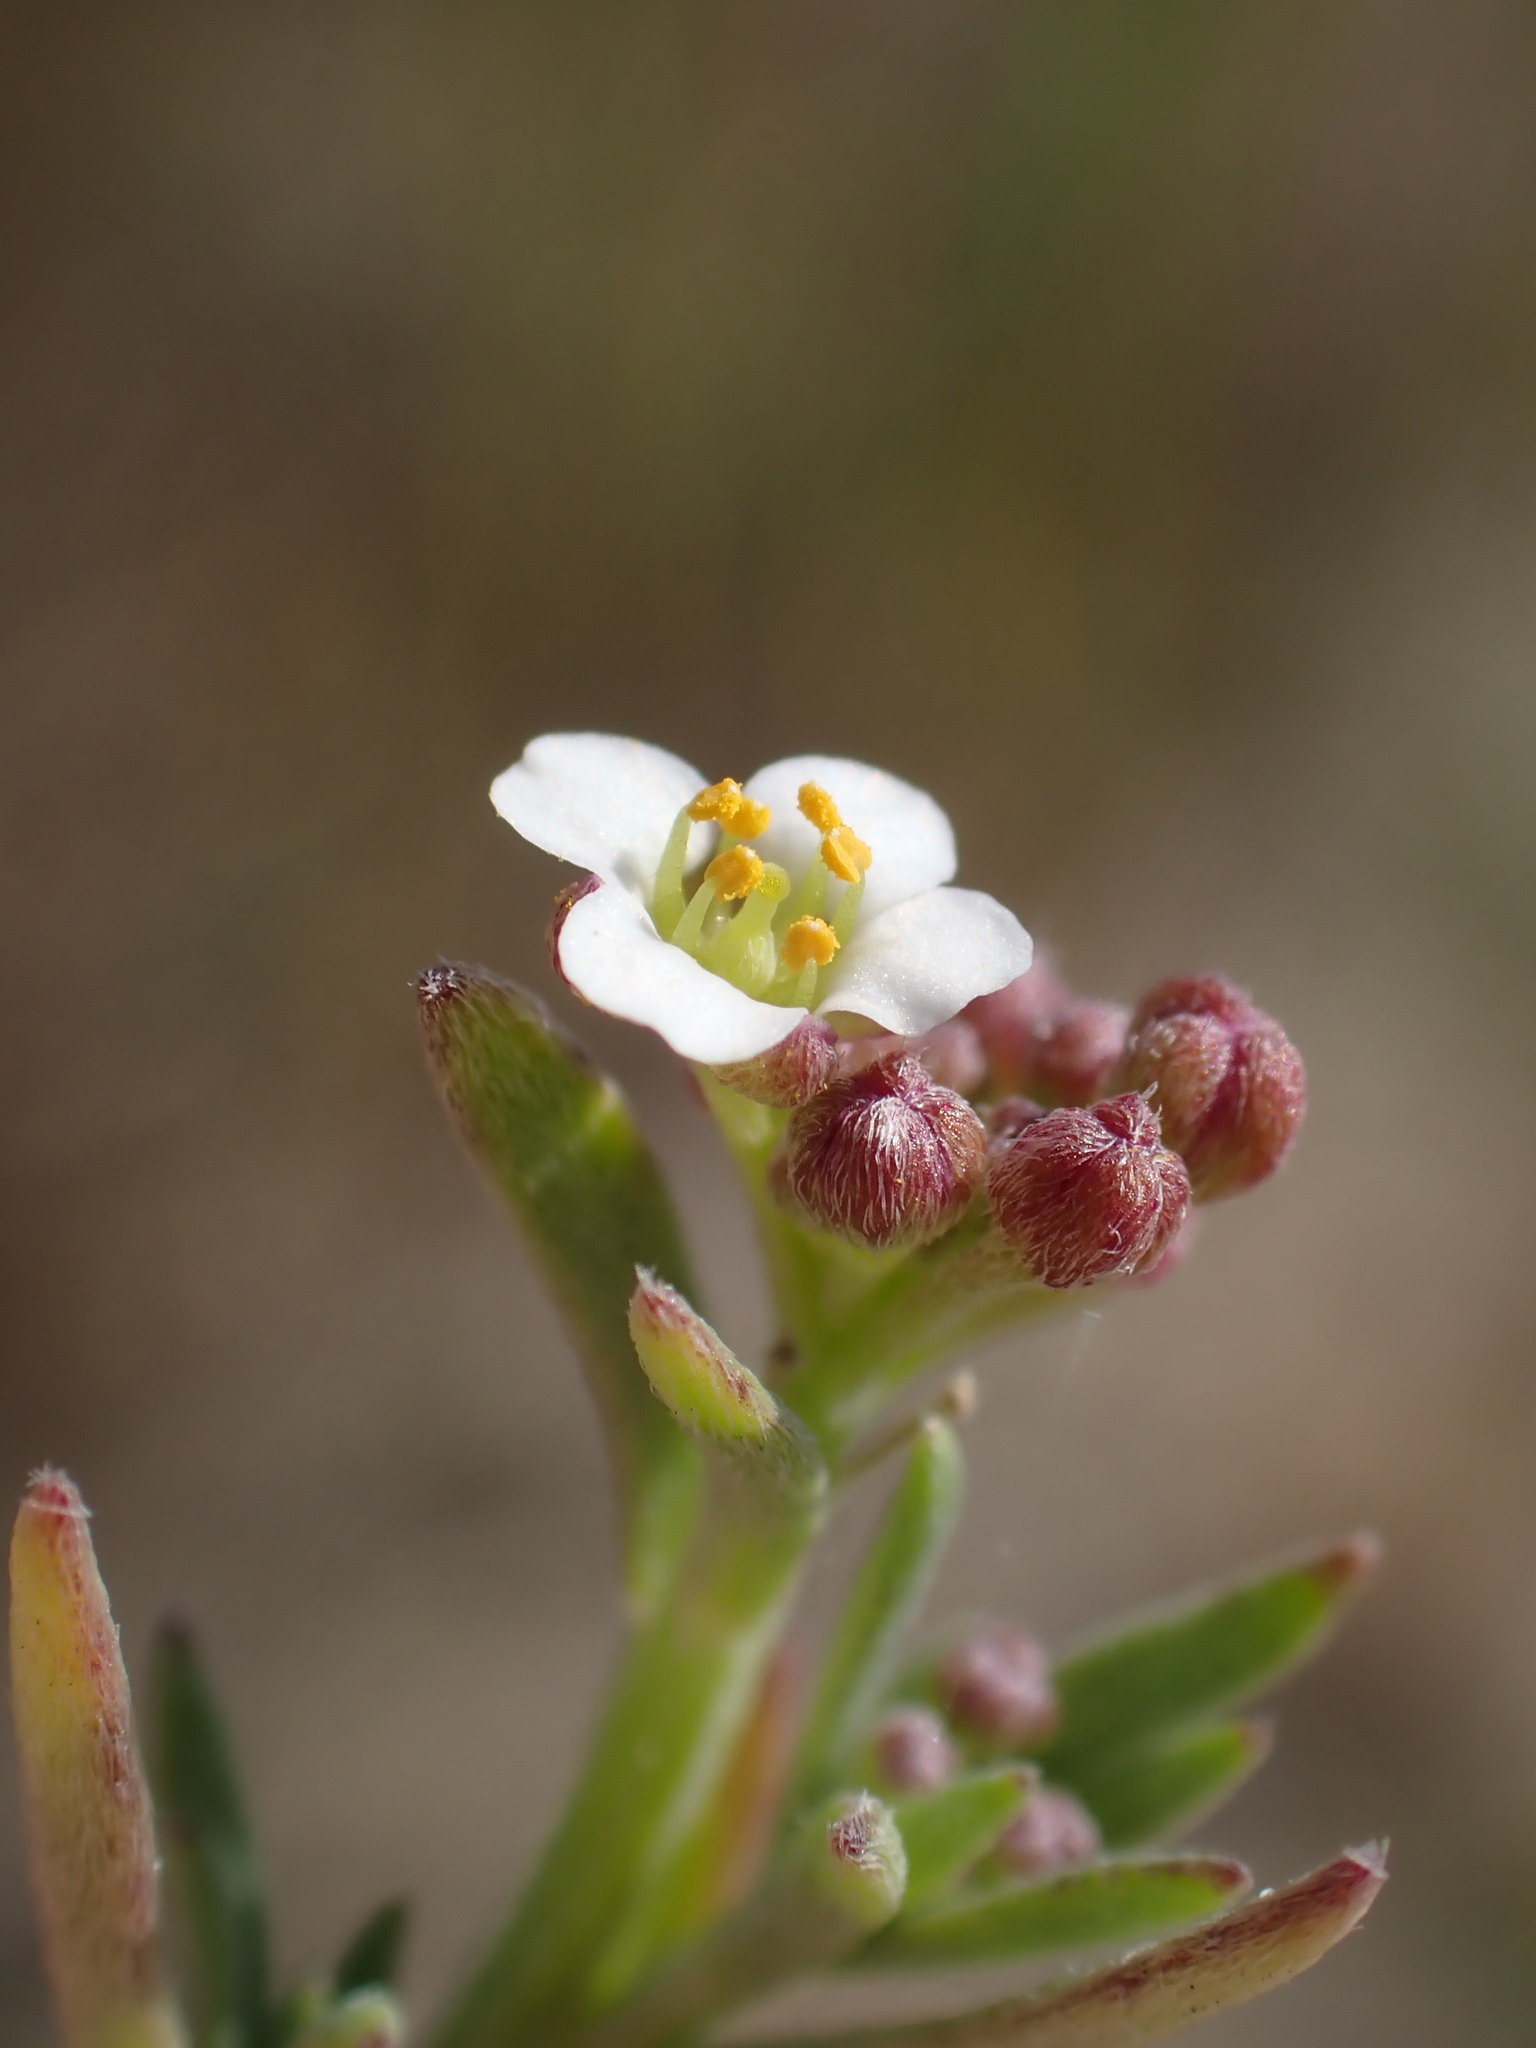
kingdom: Plantae
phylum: Tracheophyta
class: Magnoliopsida
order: Brassicales
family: Brassicaceae
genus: Lobularia
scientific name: Lobularia maritima
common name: Sweet alison
